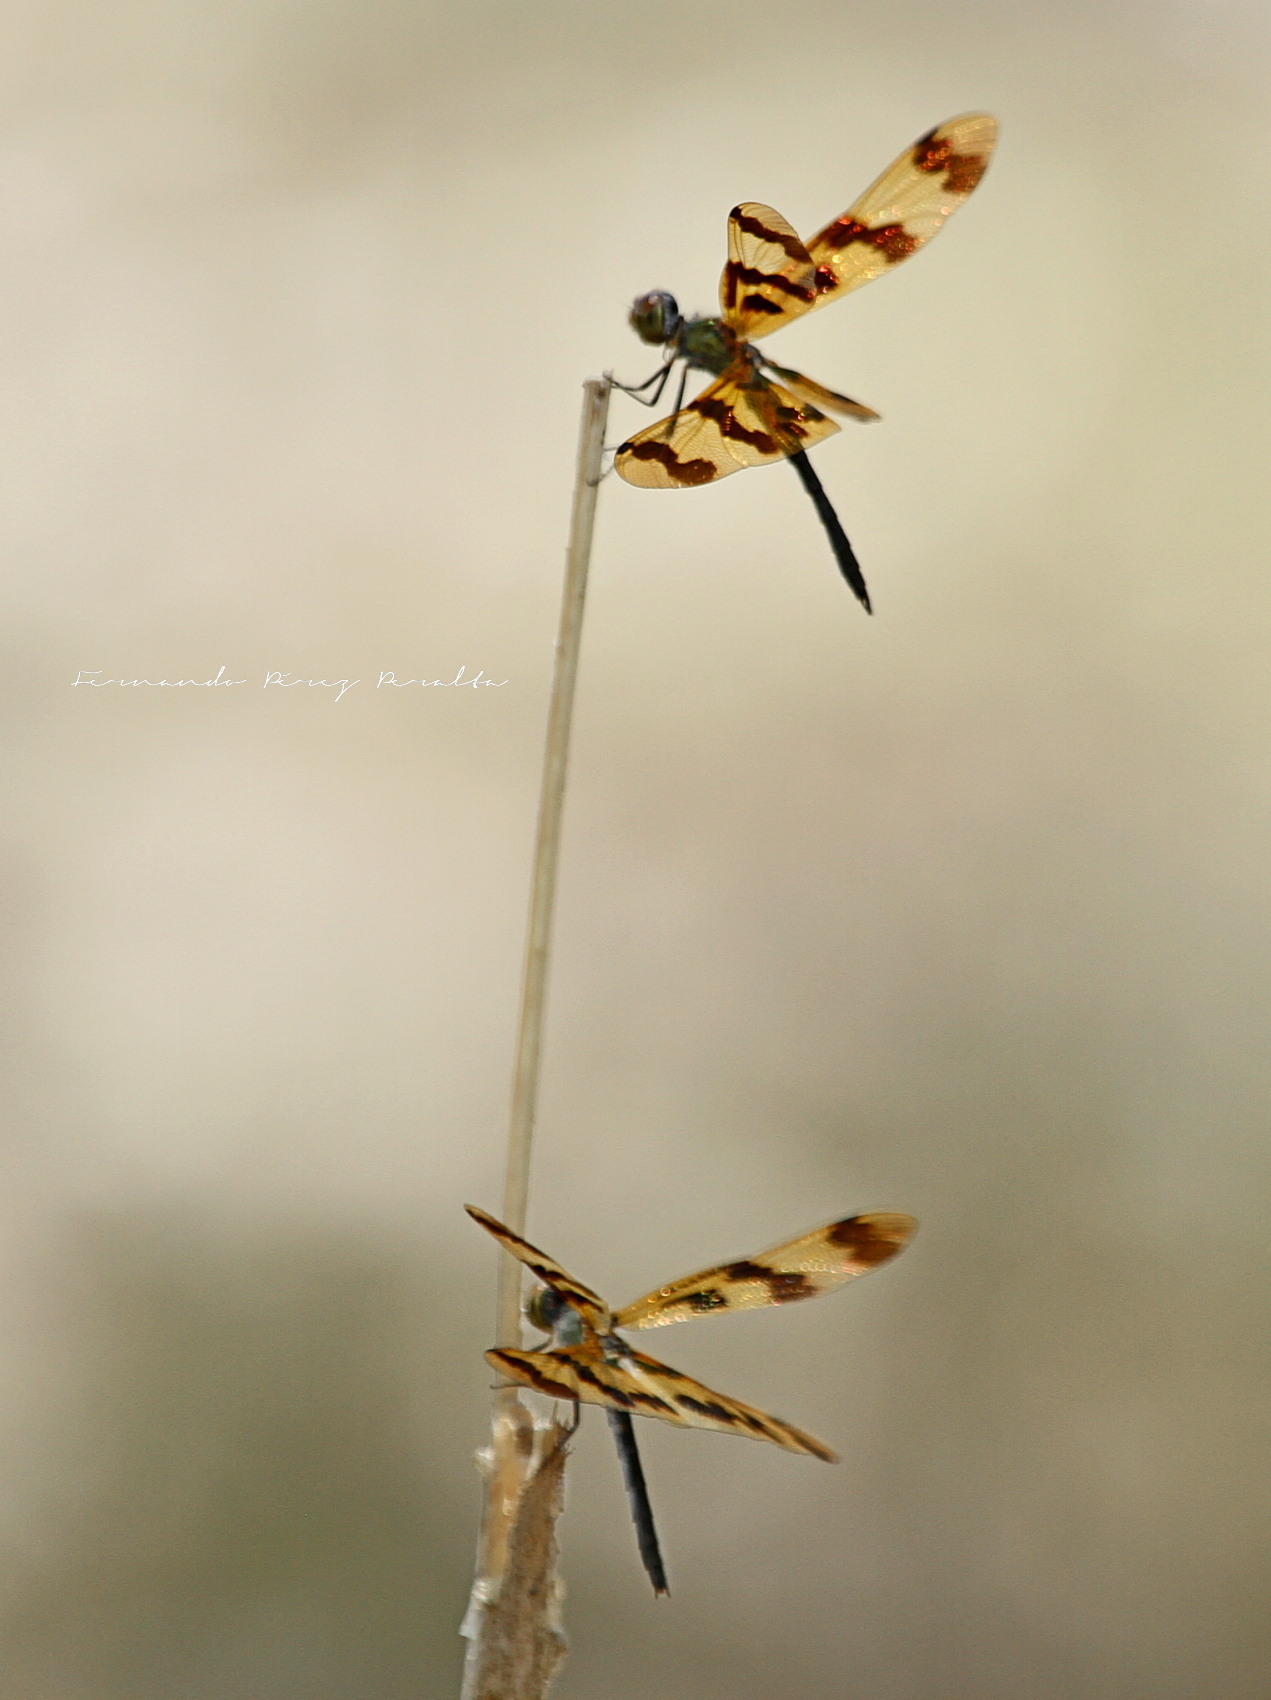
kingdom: Animalia
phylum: Arthropoda
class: Insecta
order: Odonata
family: Libellulidae
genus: Rhyothemis
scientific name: Rhyothemis graphiptera
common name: Graphic flutterer
